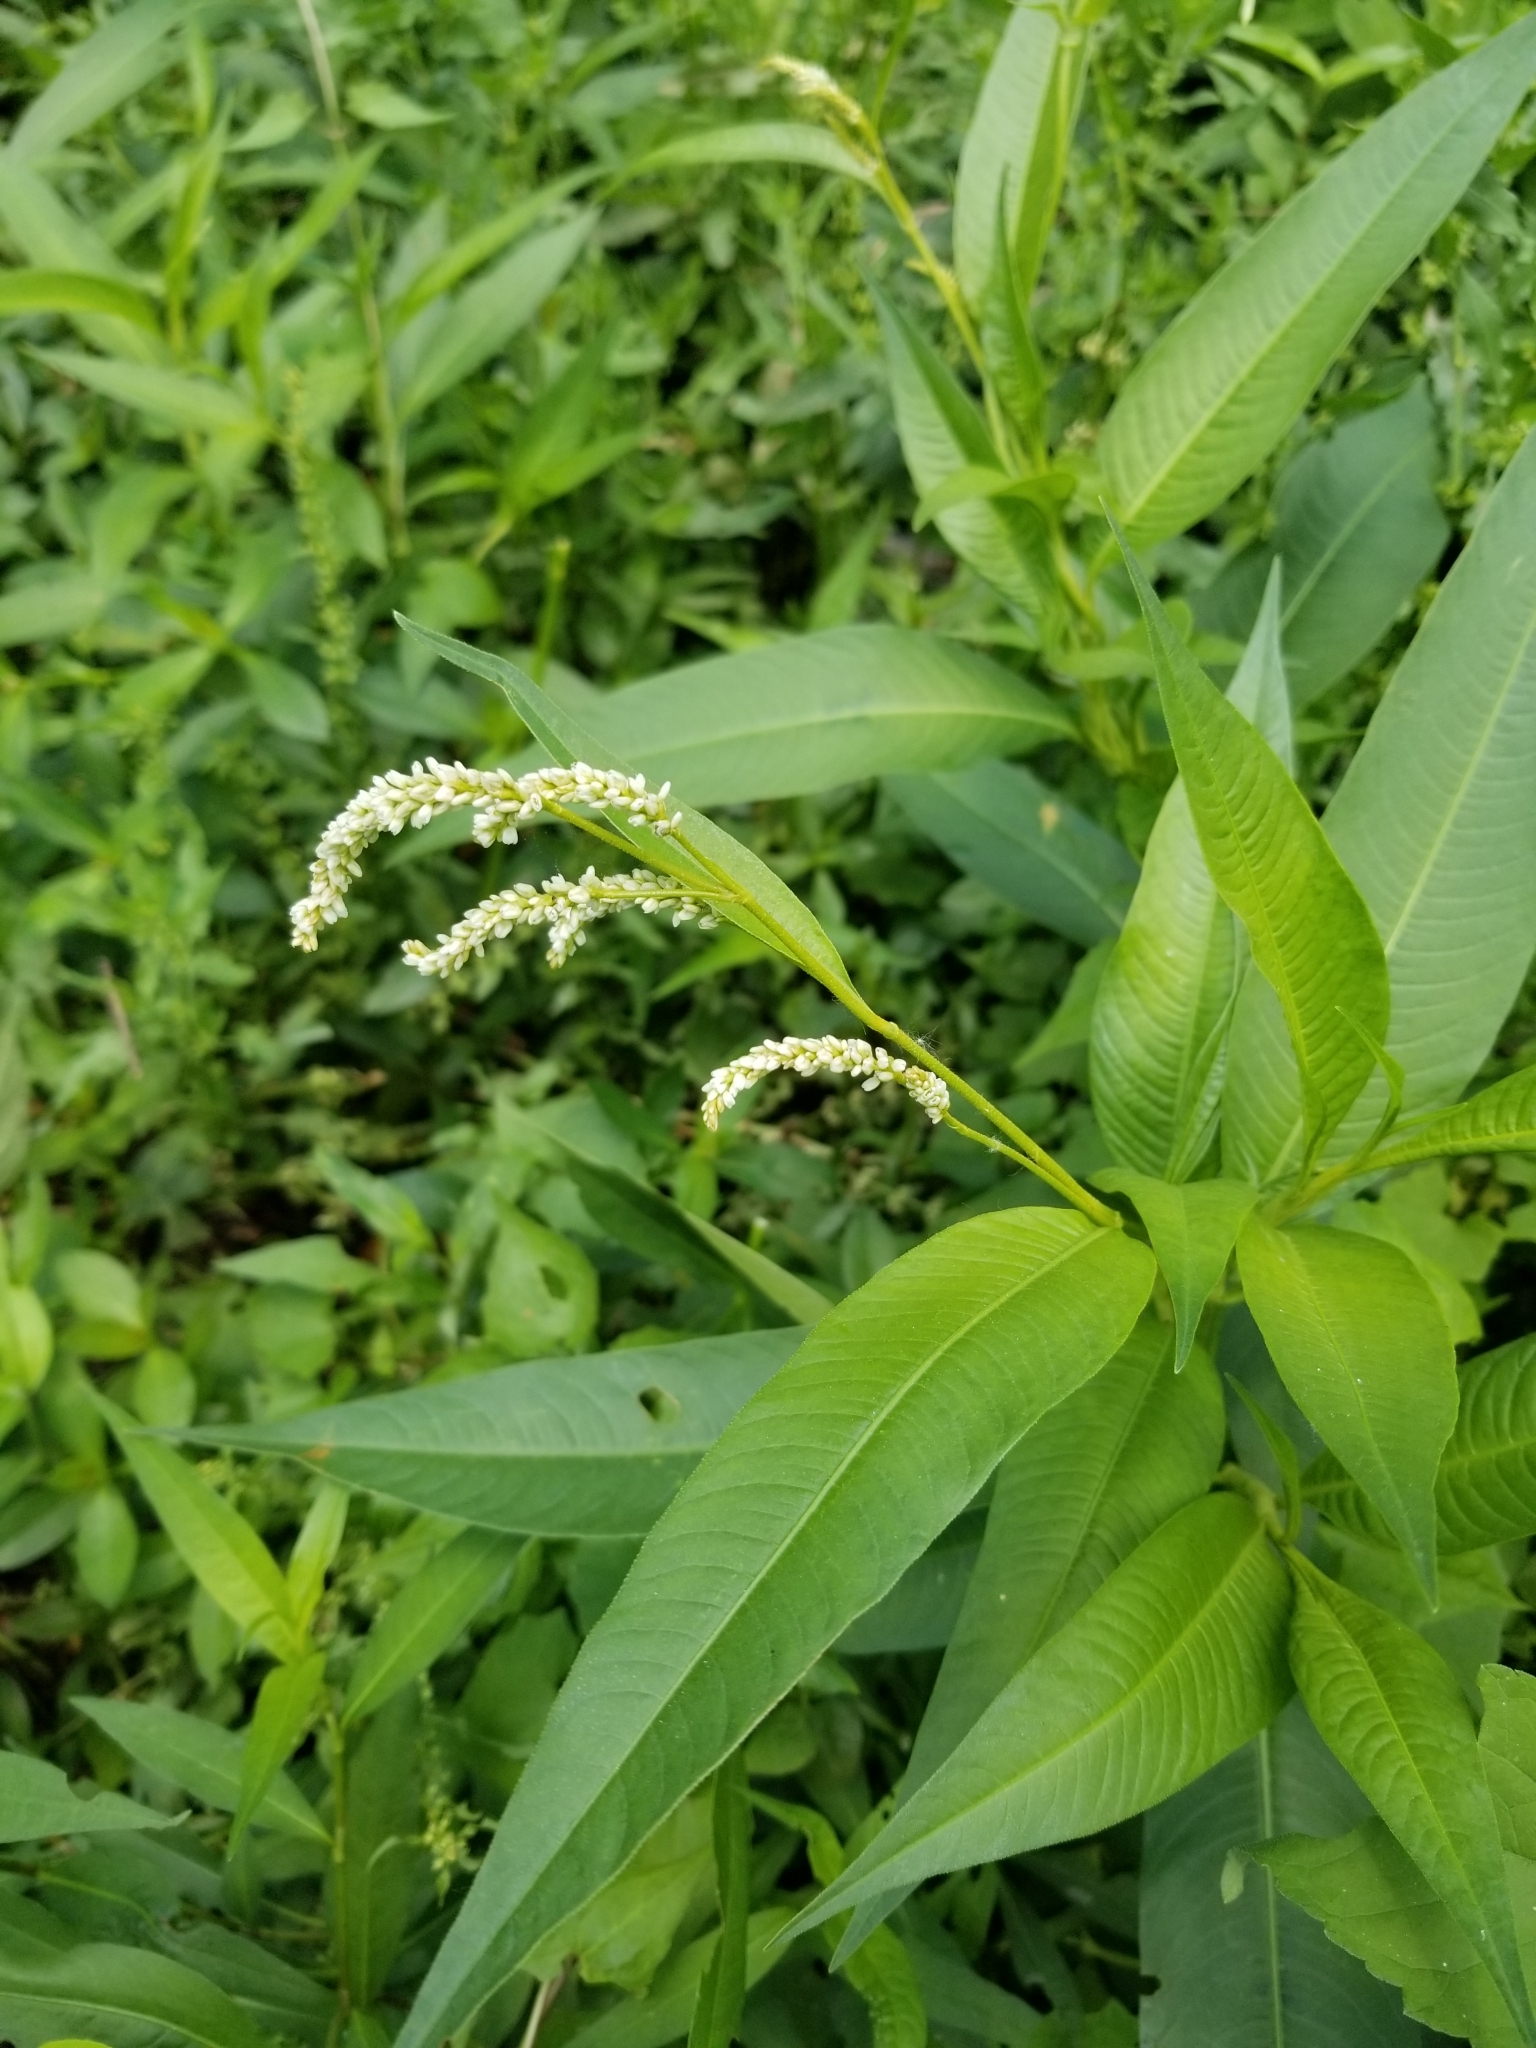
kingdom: Plantae
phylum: Tracheophyta
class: Magnoliopsida
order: Caryophyllales
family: Polygonaceae
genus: Persicaria
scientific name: Persicaria lapathifolia
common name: Curlytop knotweed
